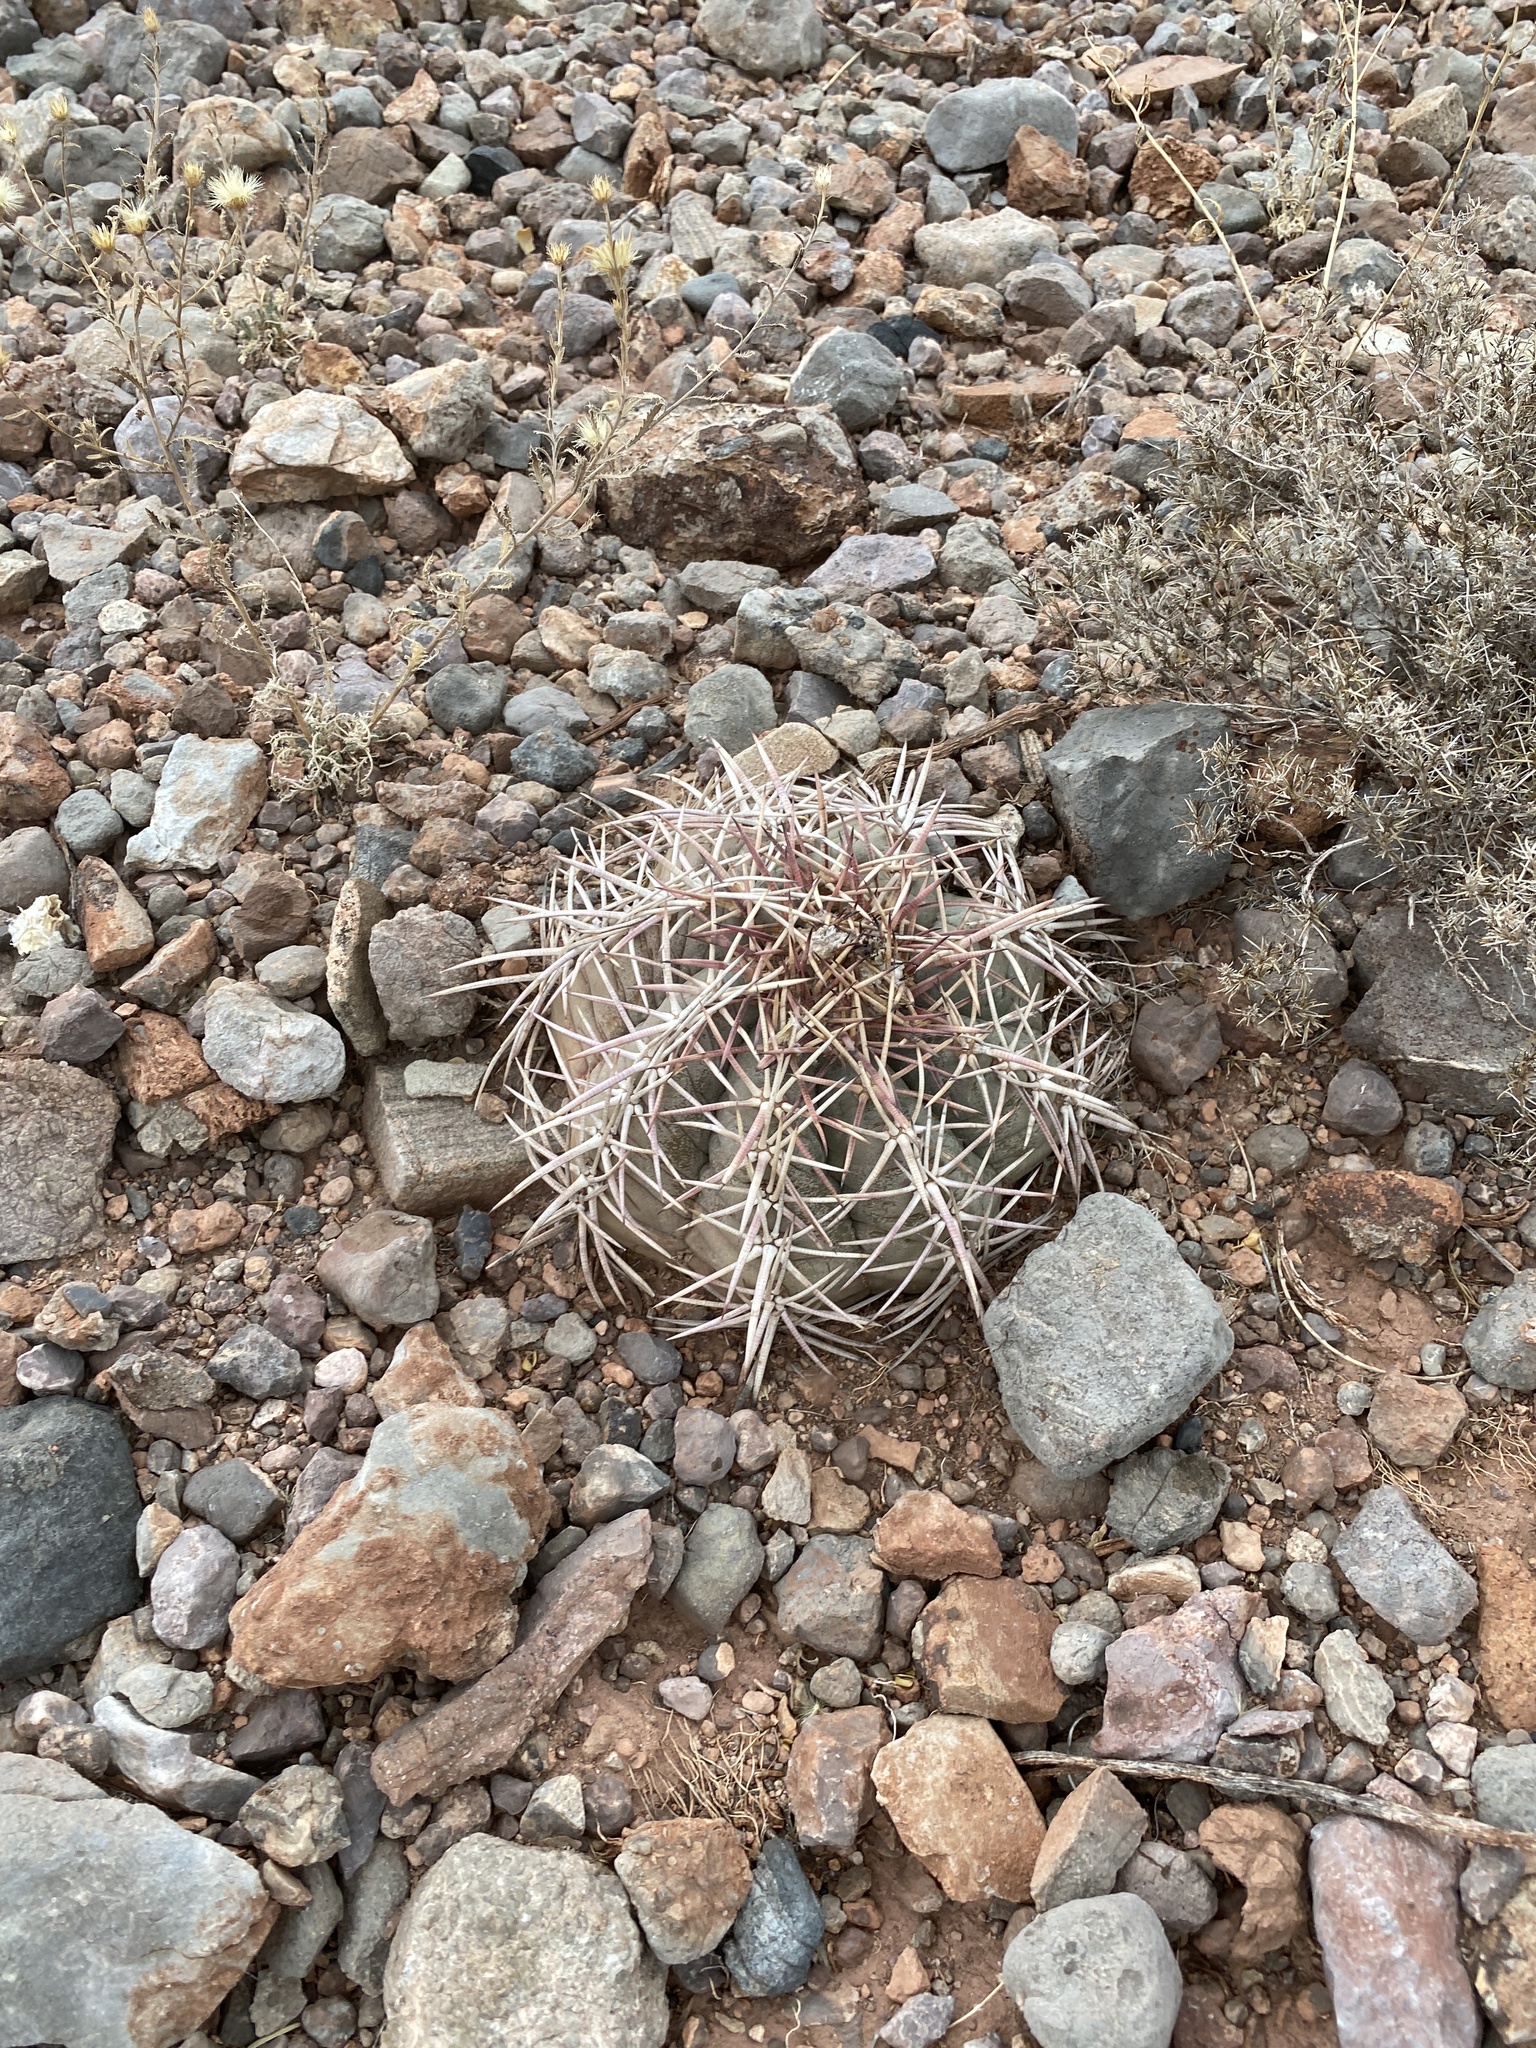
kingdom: Plantae
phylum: Tracheophyta
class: Magnoliopsida
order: Caryophyllales
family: Cactaceae
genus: Echinocactus
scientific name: Echinocactus horizonthalonius
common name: Devilshead
